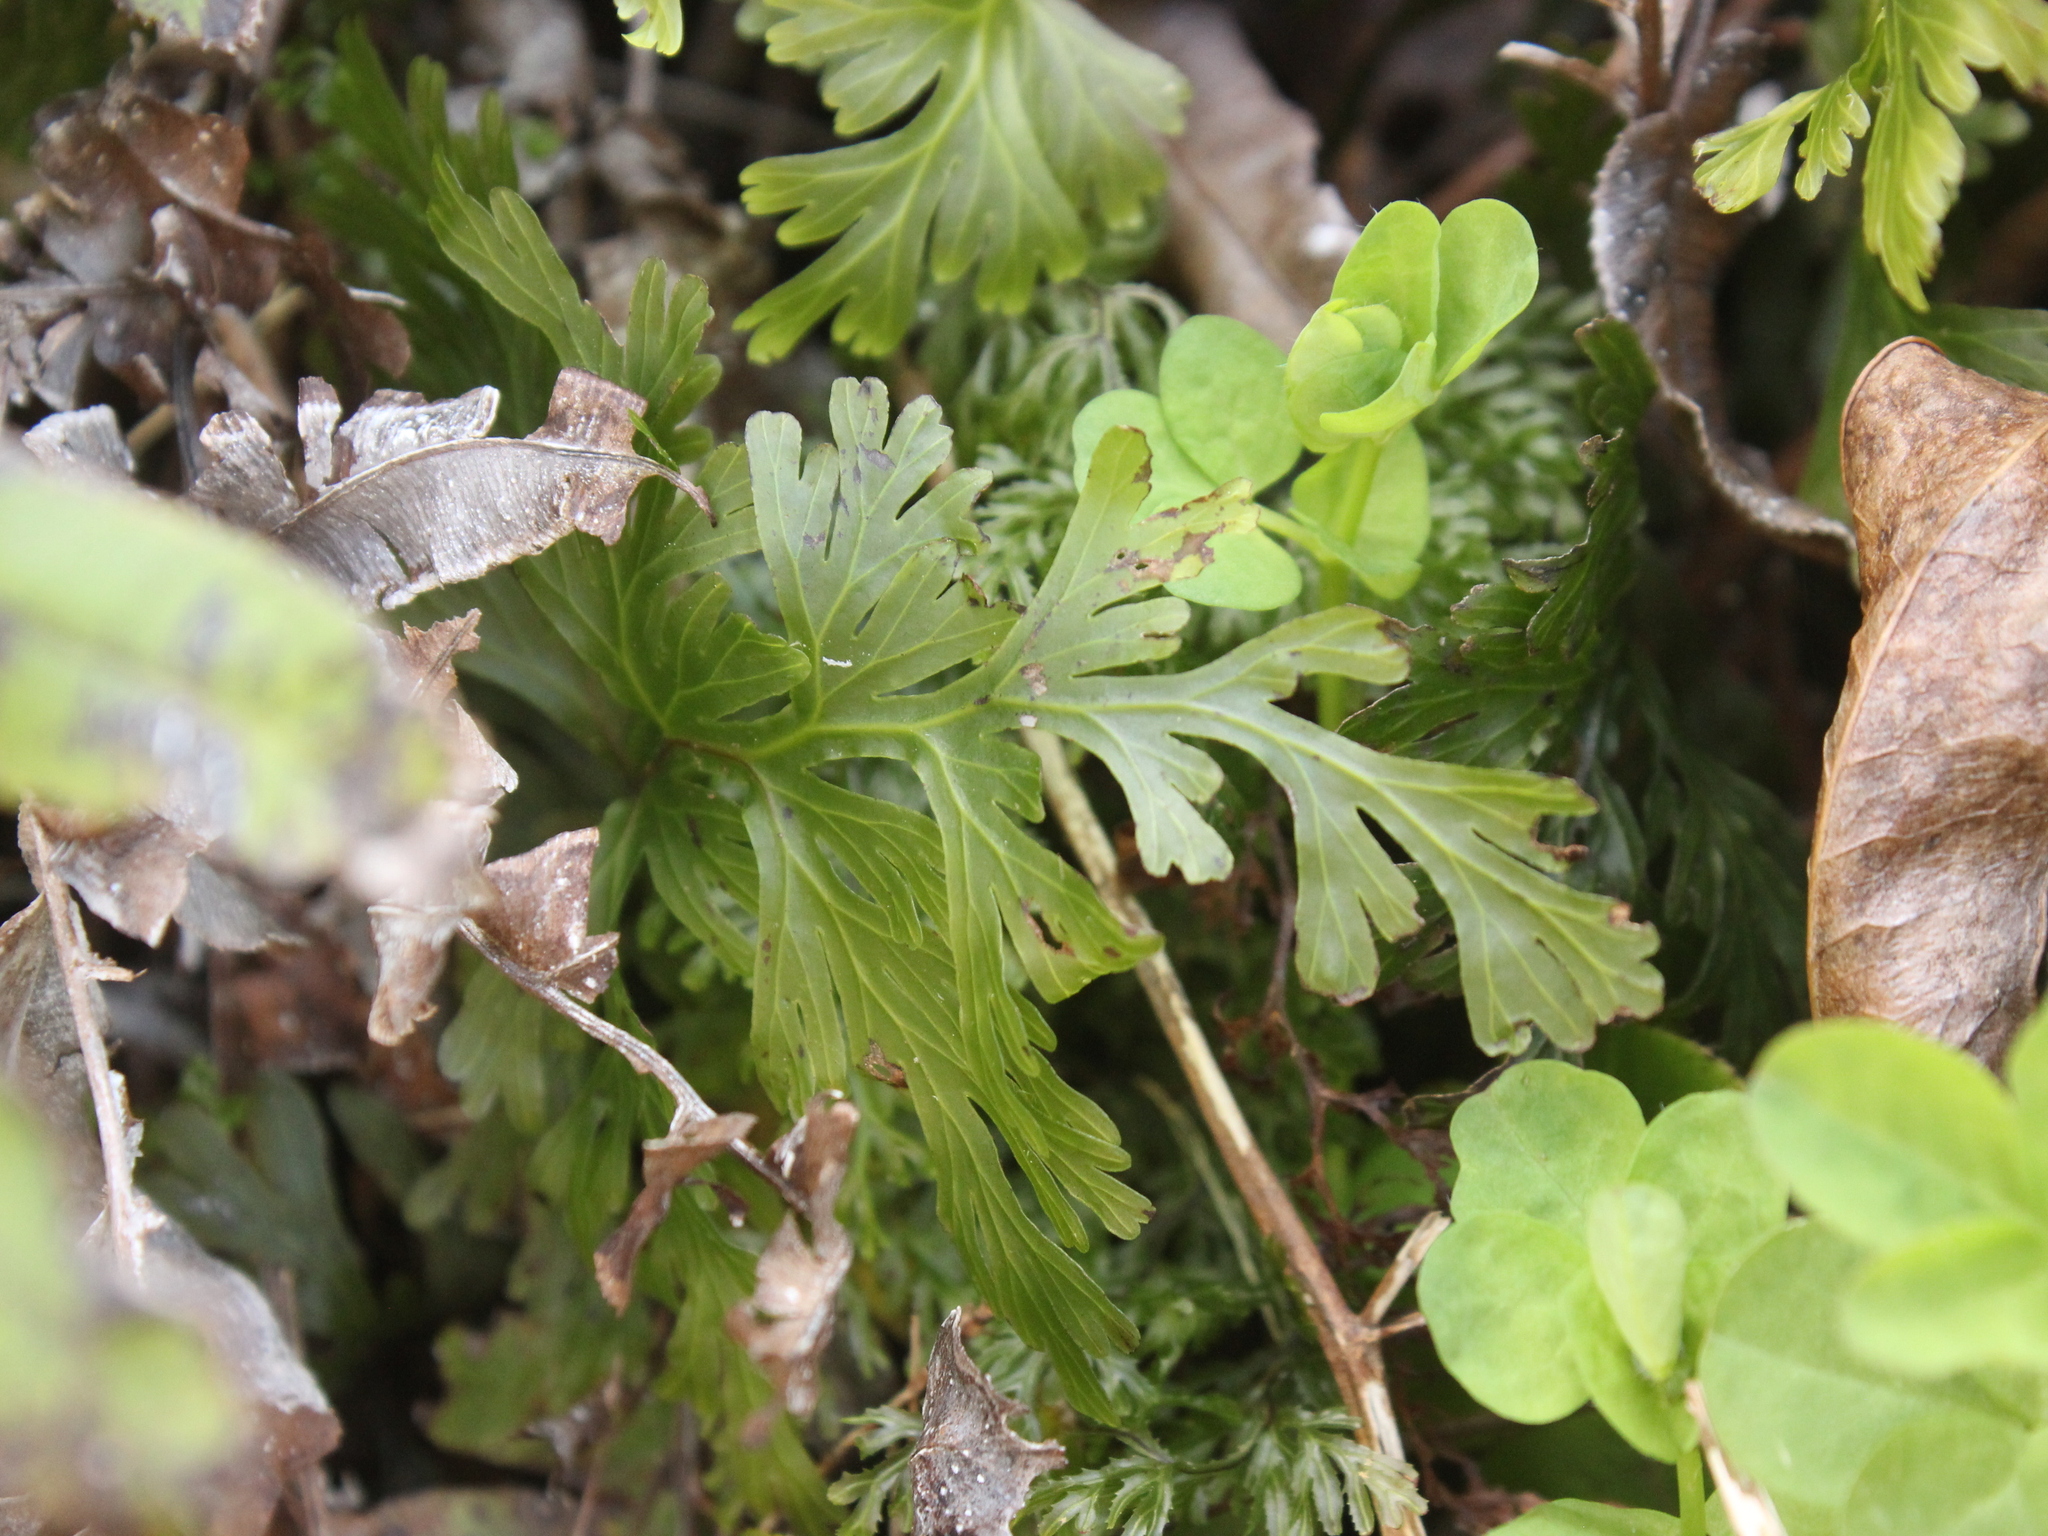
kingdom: Plantae
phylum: Tracheophyta
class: Polypodiopsida
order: Hymenophyllales
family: Hymenophyllaceae
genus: Hymenophyllum
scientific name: Hymenophyllum dilatatum
